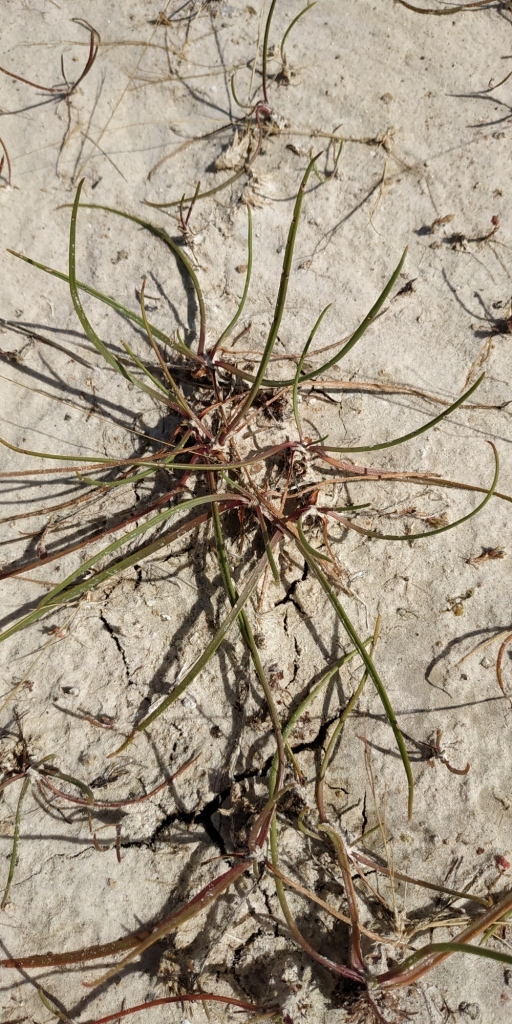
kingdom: Plantae
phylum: Tracheophyta
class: Magnoliopsida
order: Lamiales
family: Plantaginaceae
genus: Plantago
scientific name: Plantago salsa
